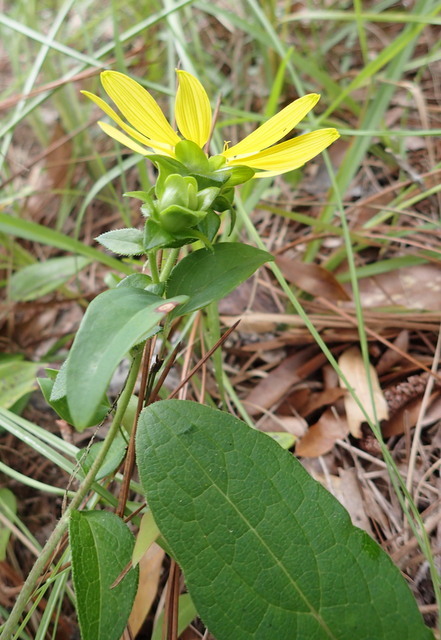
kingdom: Plantae
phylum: Tracheophyta
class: Magnoliopsida
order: Asterales
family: Asteraceae
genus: Silphium
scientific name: Silphium asteriscus
